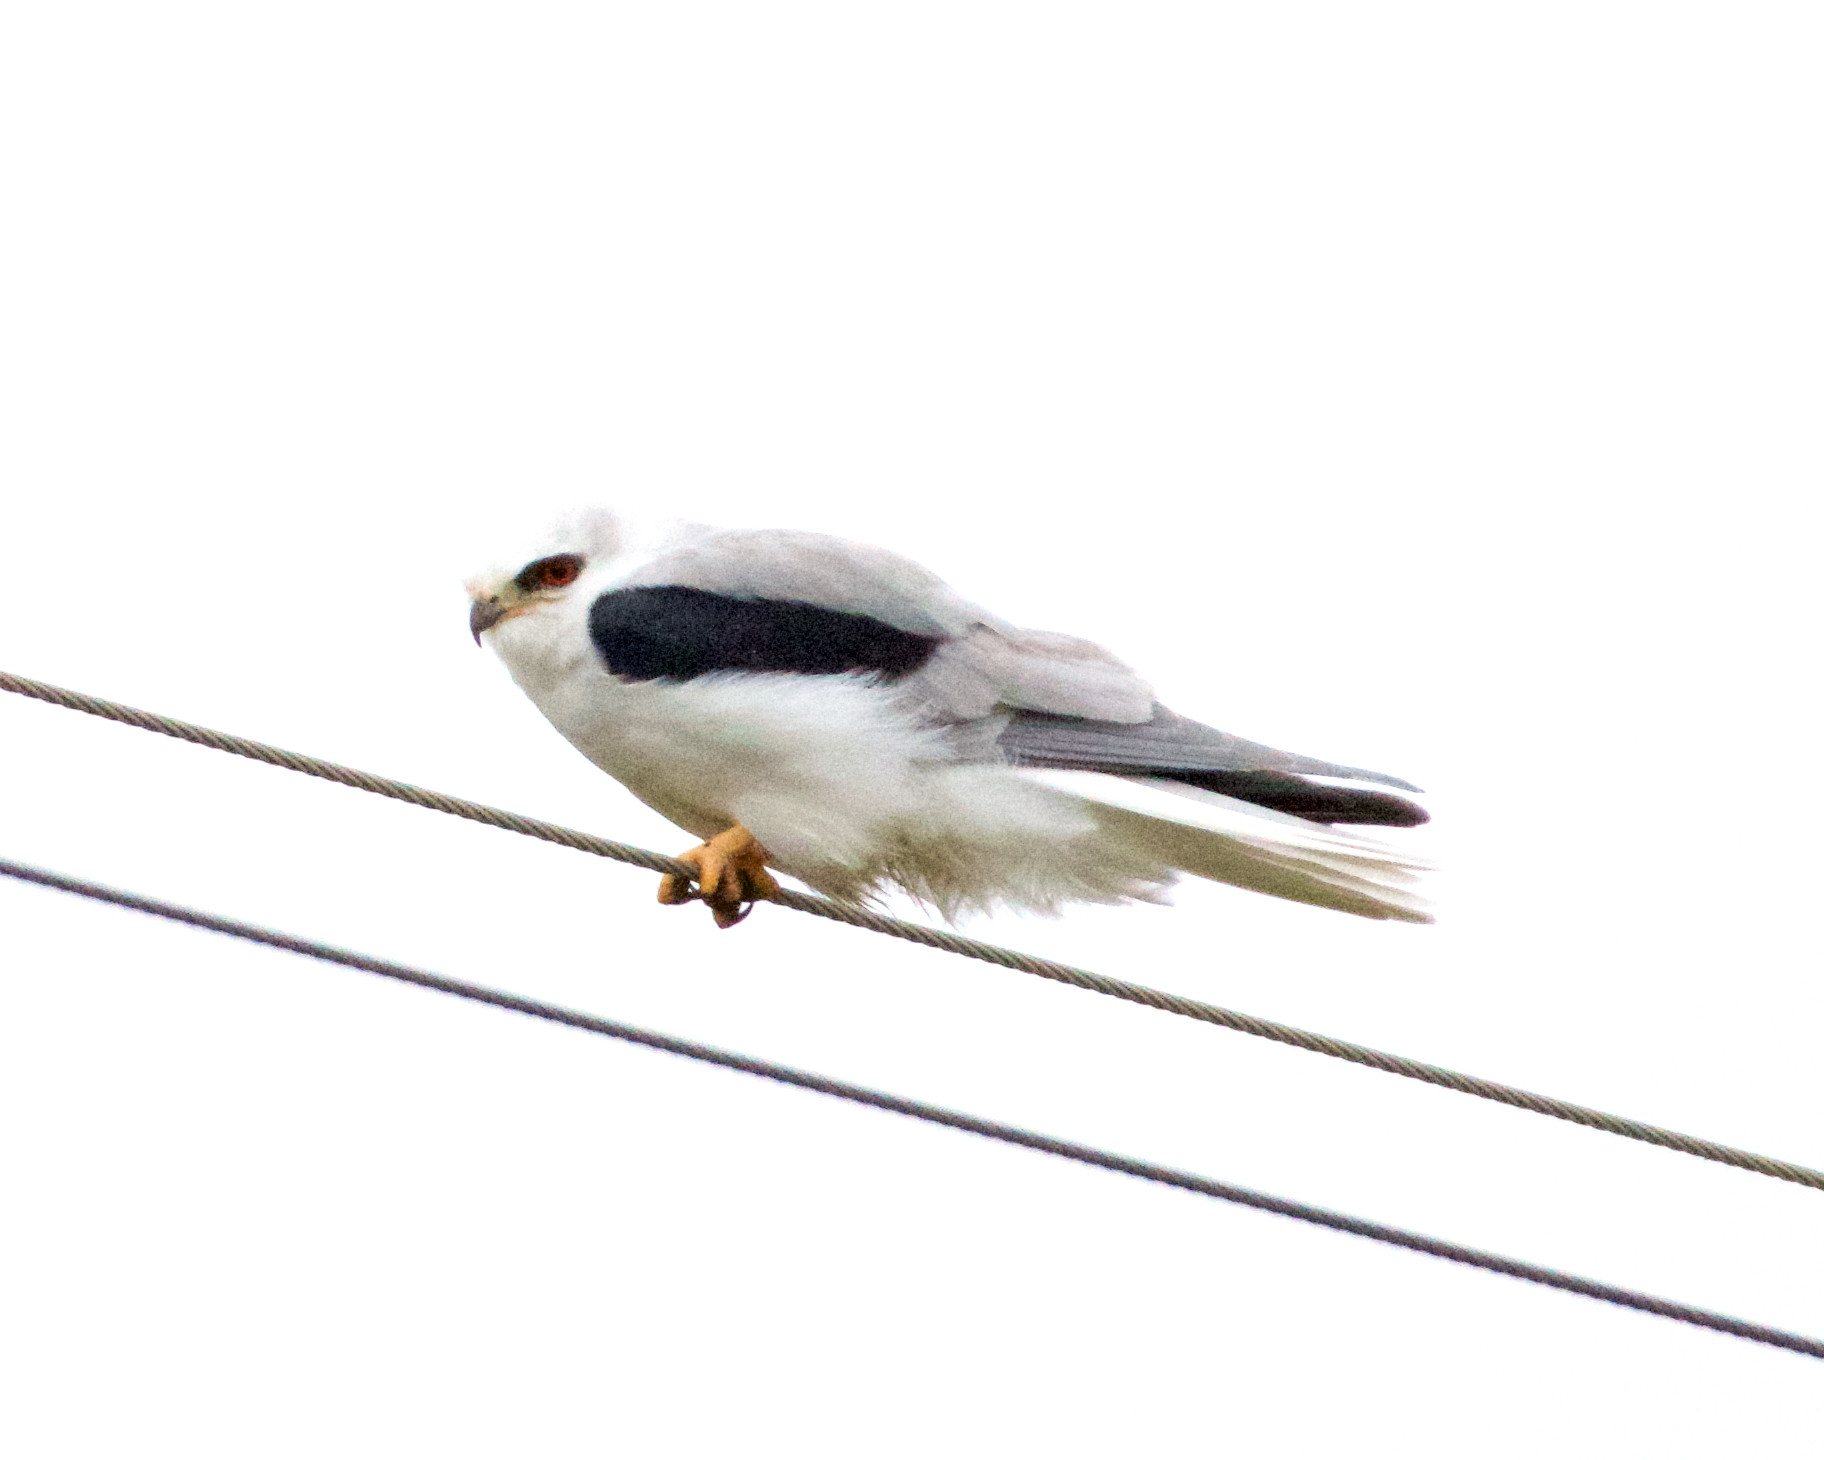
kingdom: Animalia
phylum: Chordata
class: Aves
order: Accipitriformes
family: Accipitridae
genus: Elanus
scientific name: Elanus leucurus
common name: White-tailed kite
